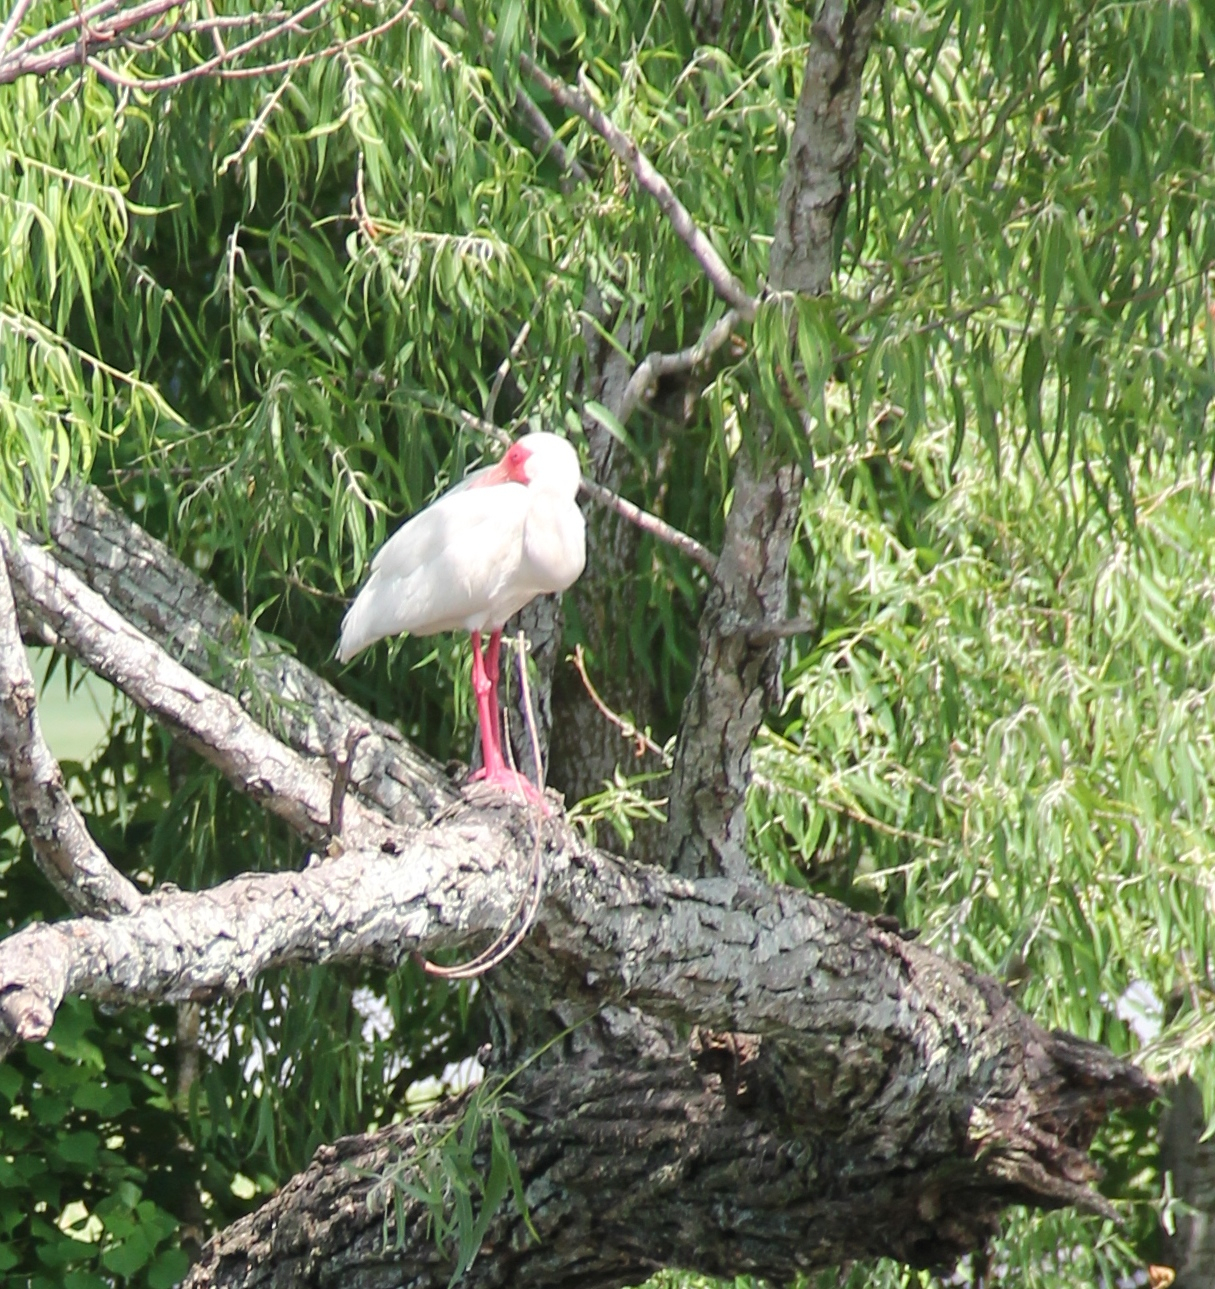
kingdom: Animalia
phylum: Chordata
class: Aves
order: Pelecaniformes
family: Threskiornithidae
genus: Eudocimus
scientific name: Eudocimus albus
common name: White ibis
